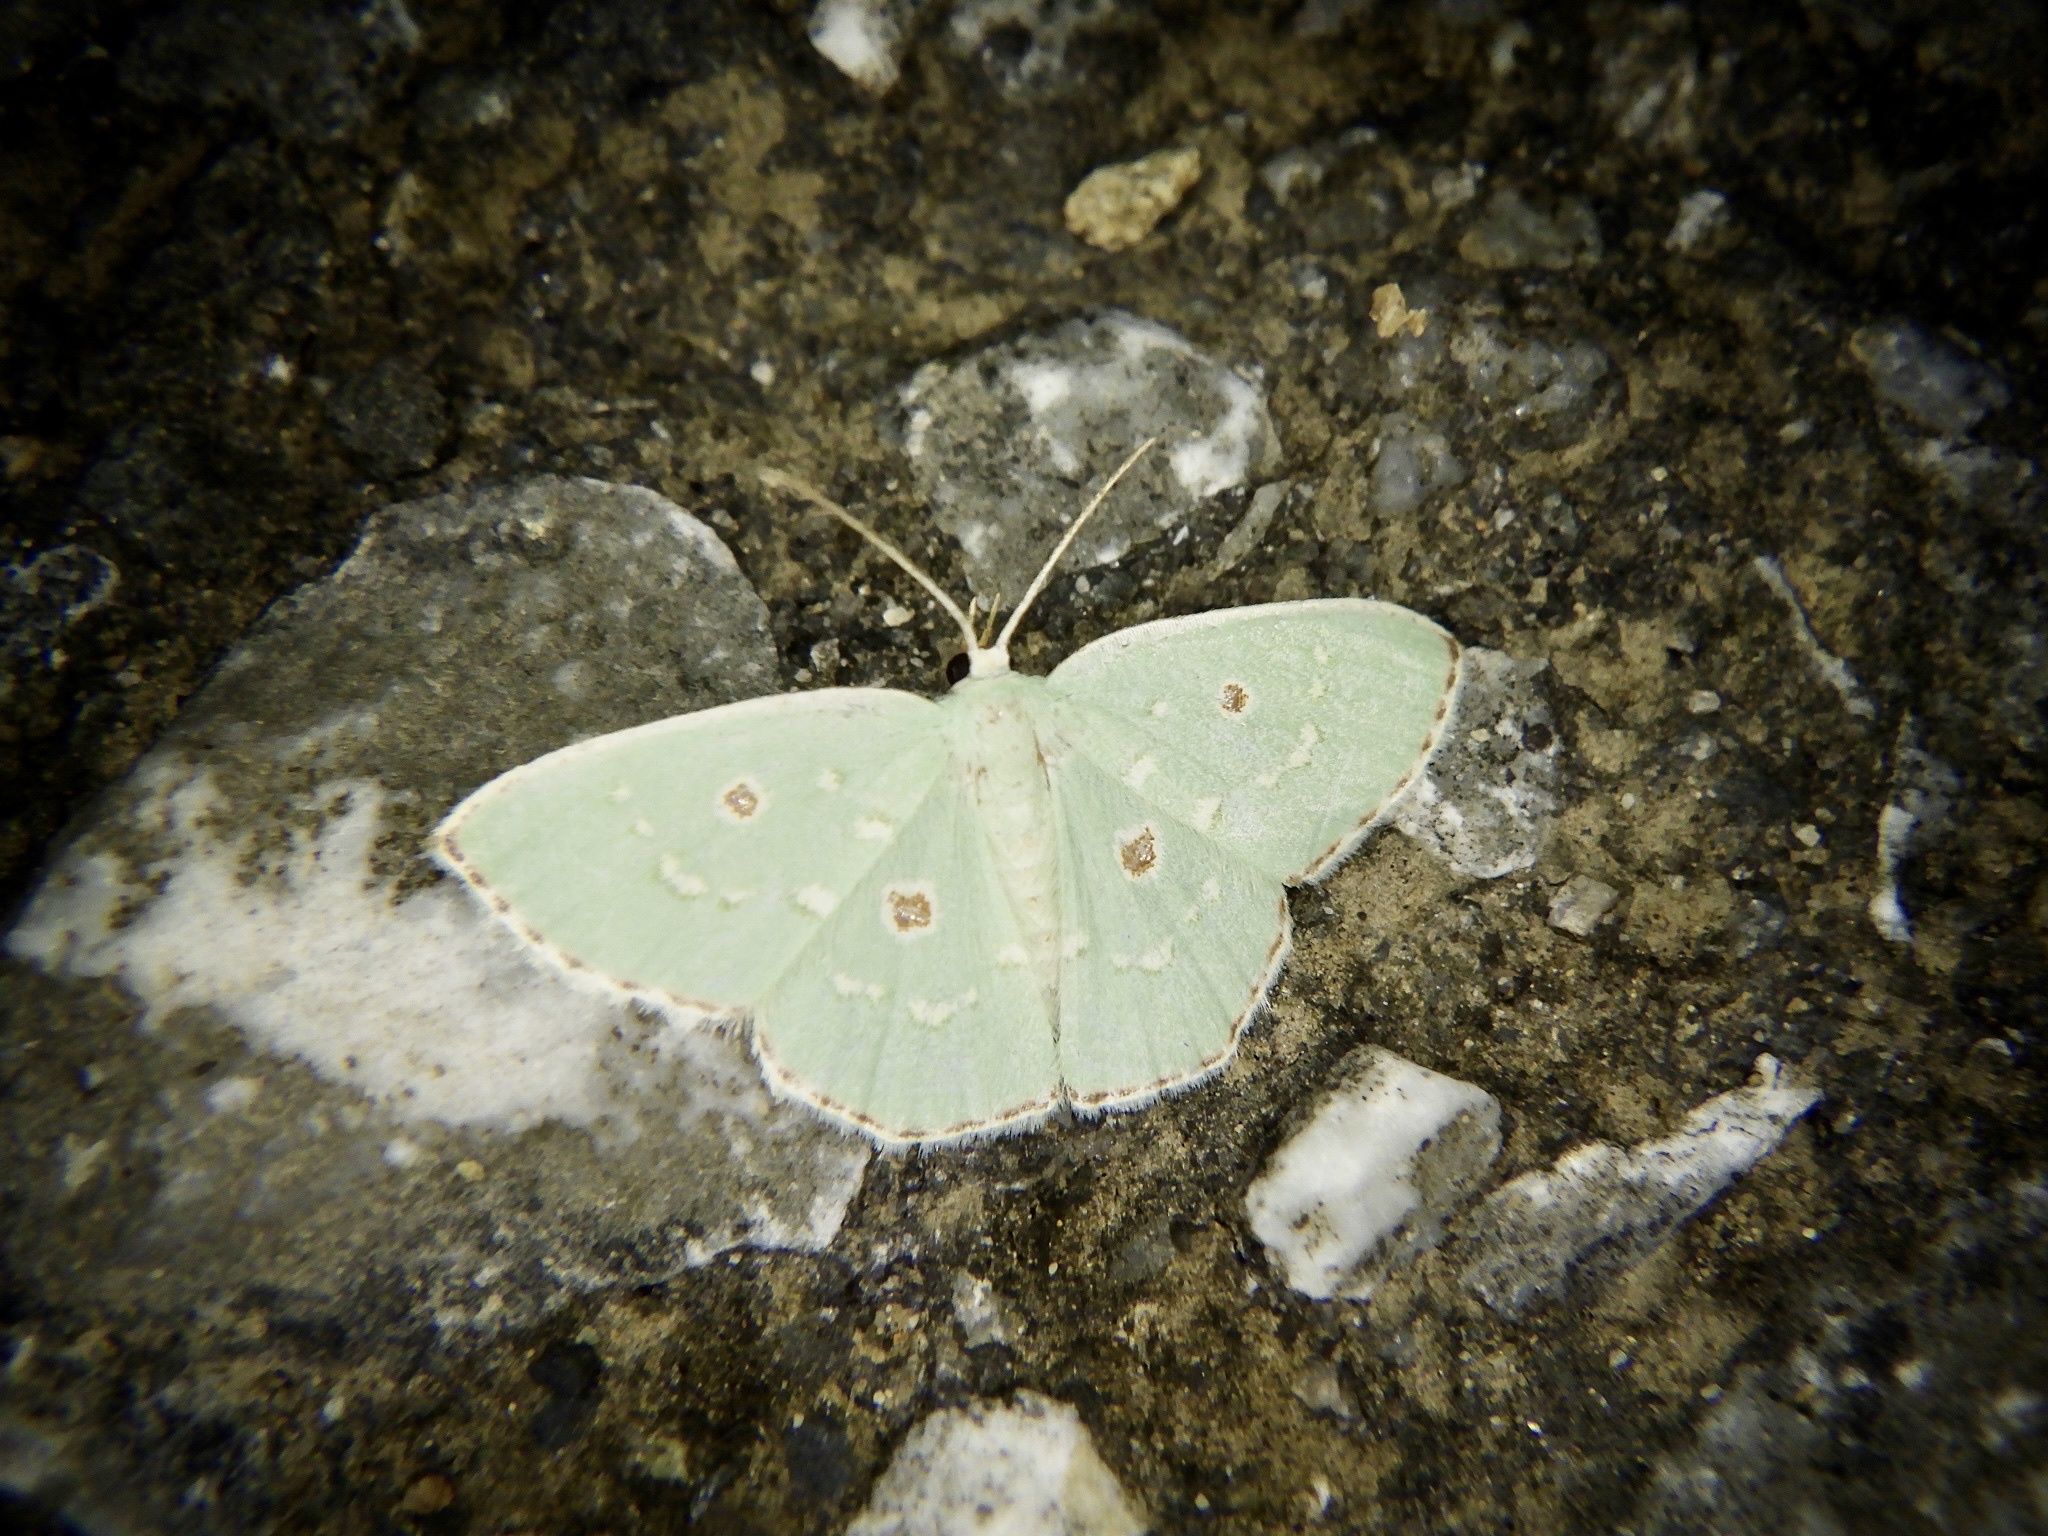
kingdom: Animalia
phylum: Arthropoda
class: Insecta
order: Lepidoptera
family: Geometridae
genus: Comostola
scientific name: Comostola subtiliaria
